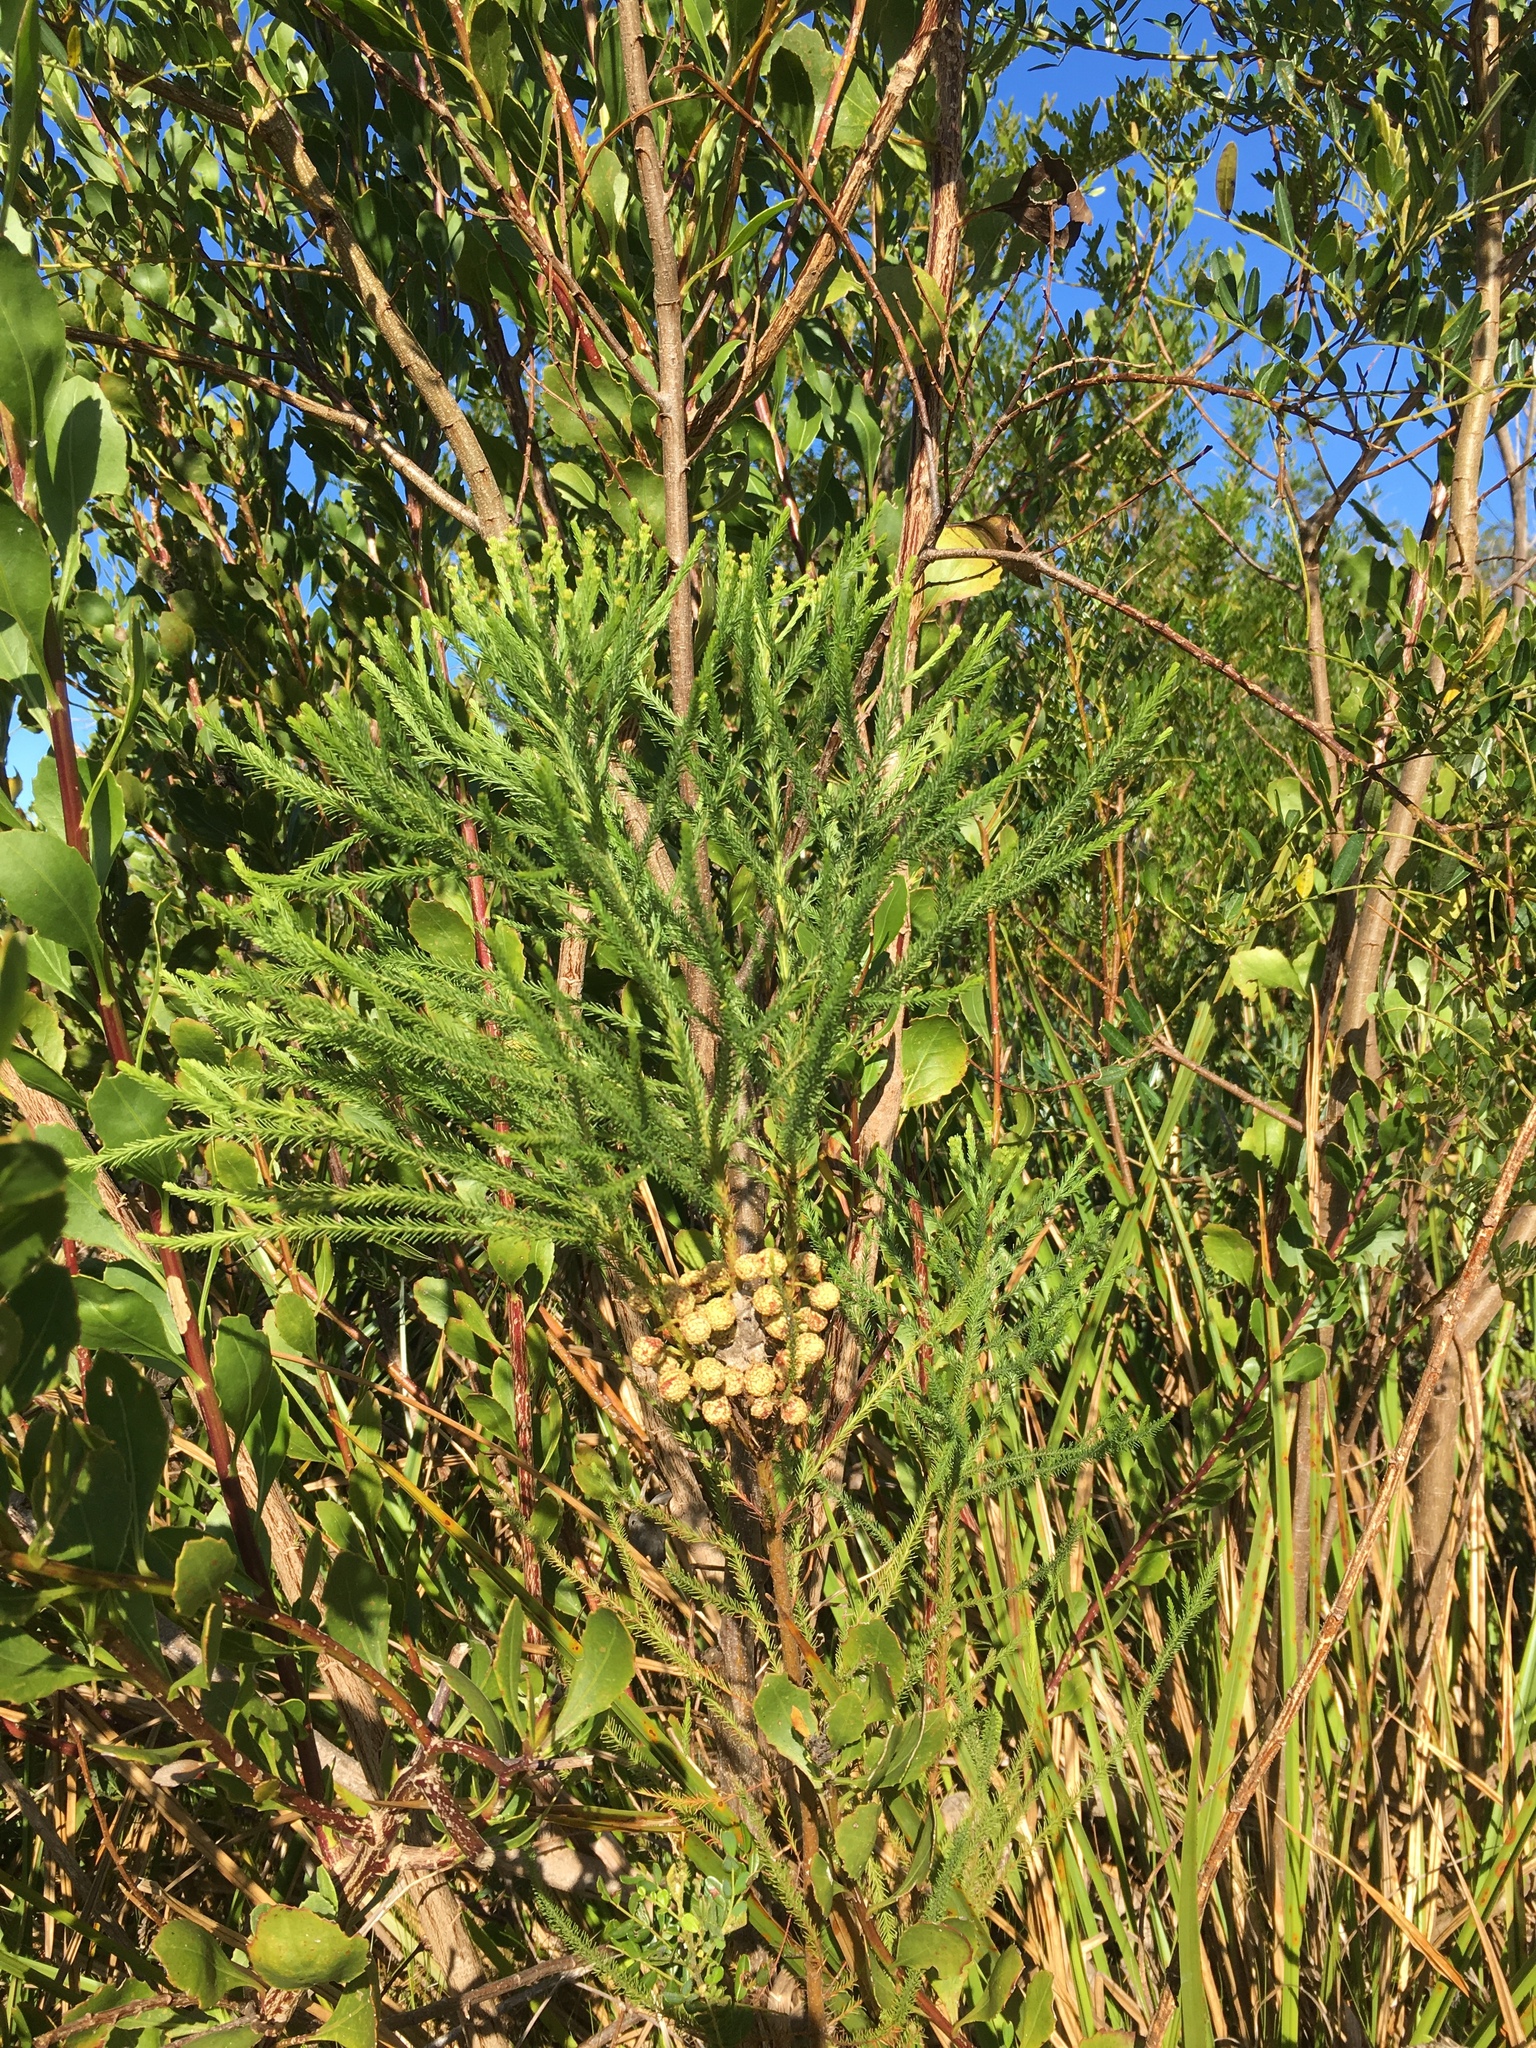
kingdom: Plantae
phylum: Tracheophyta
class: Magnoliopsida
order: Bruniales
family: Bruniaceae
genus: Berzelia
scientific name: Berzelia lanuginosa
